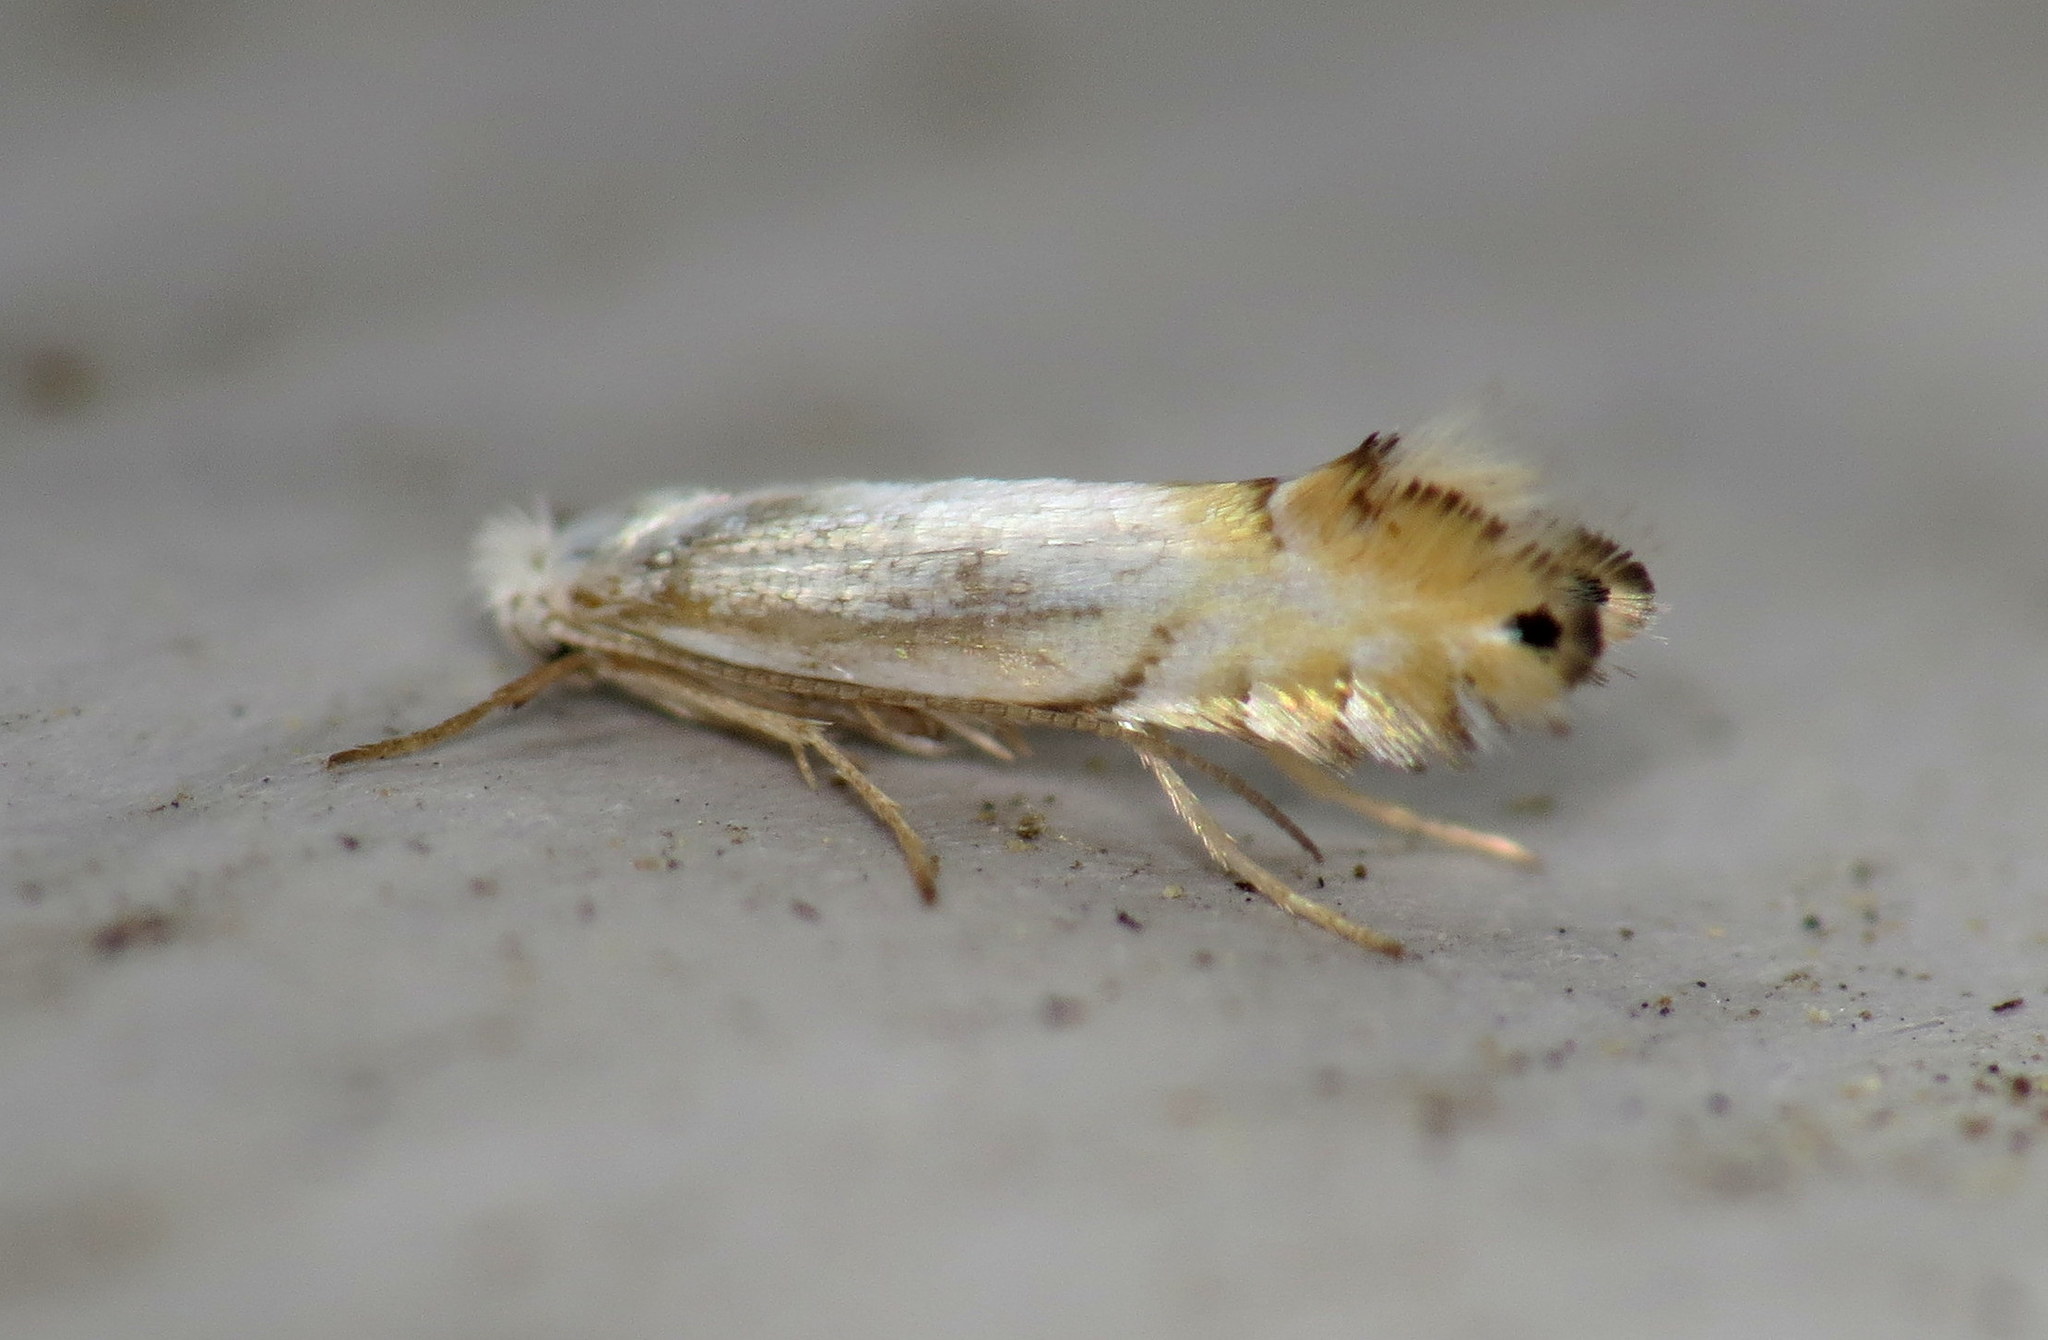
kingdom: Animalia
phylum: Arthropoda
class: Insecta
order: Lepidoptera
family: Gracillariidae
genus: Phyllonorycter
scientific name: Phyllonorycter argentifimbriella
